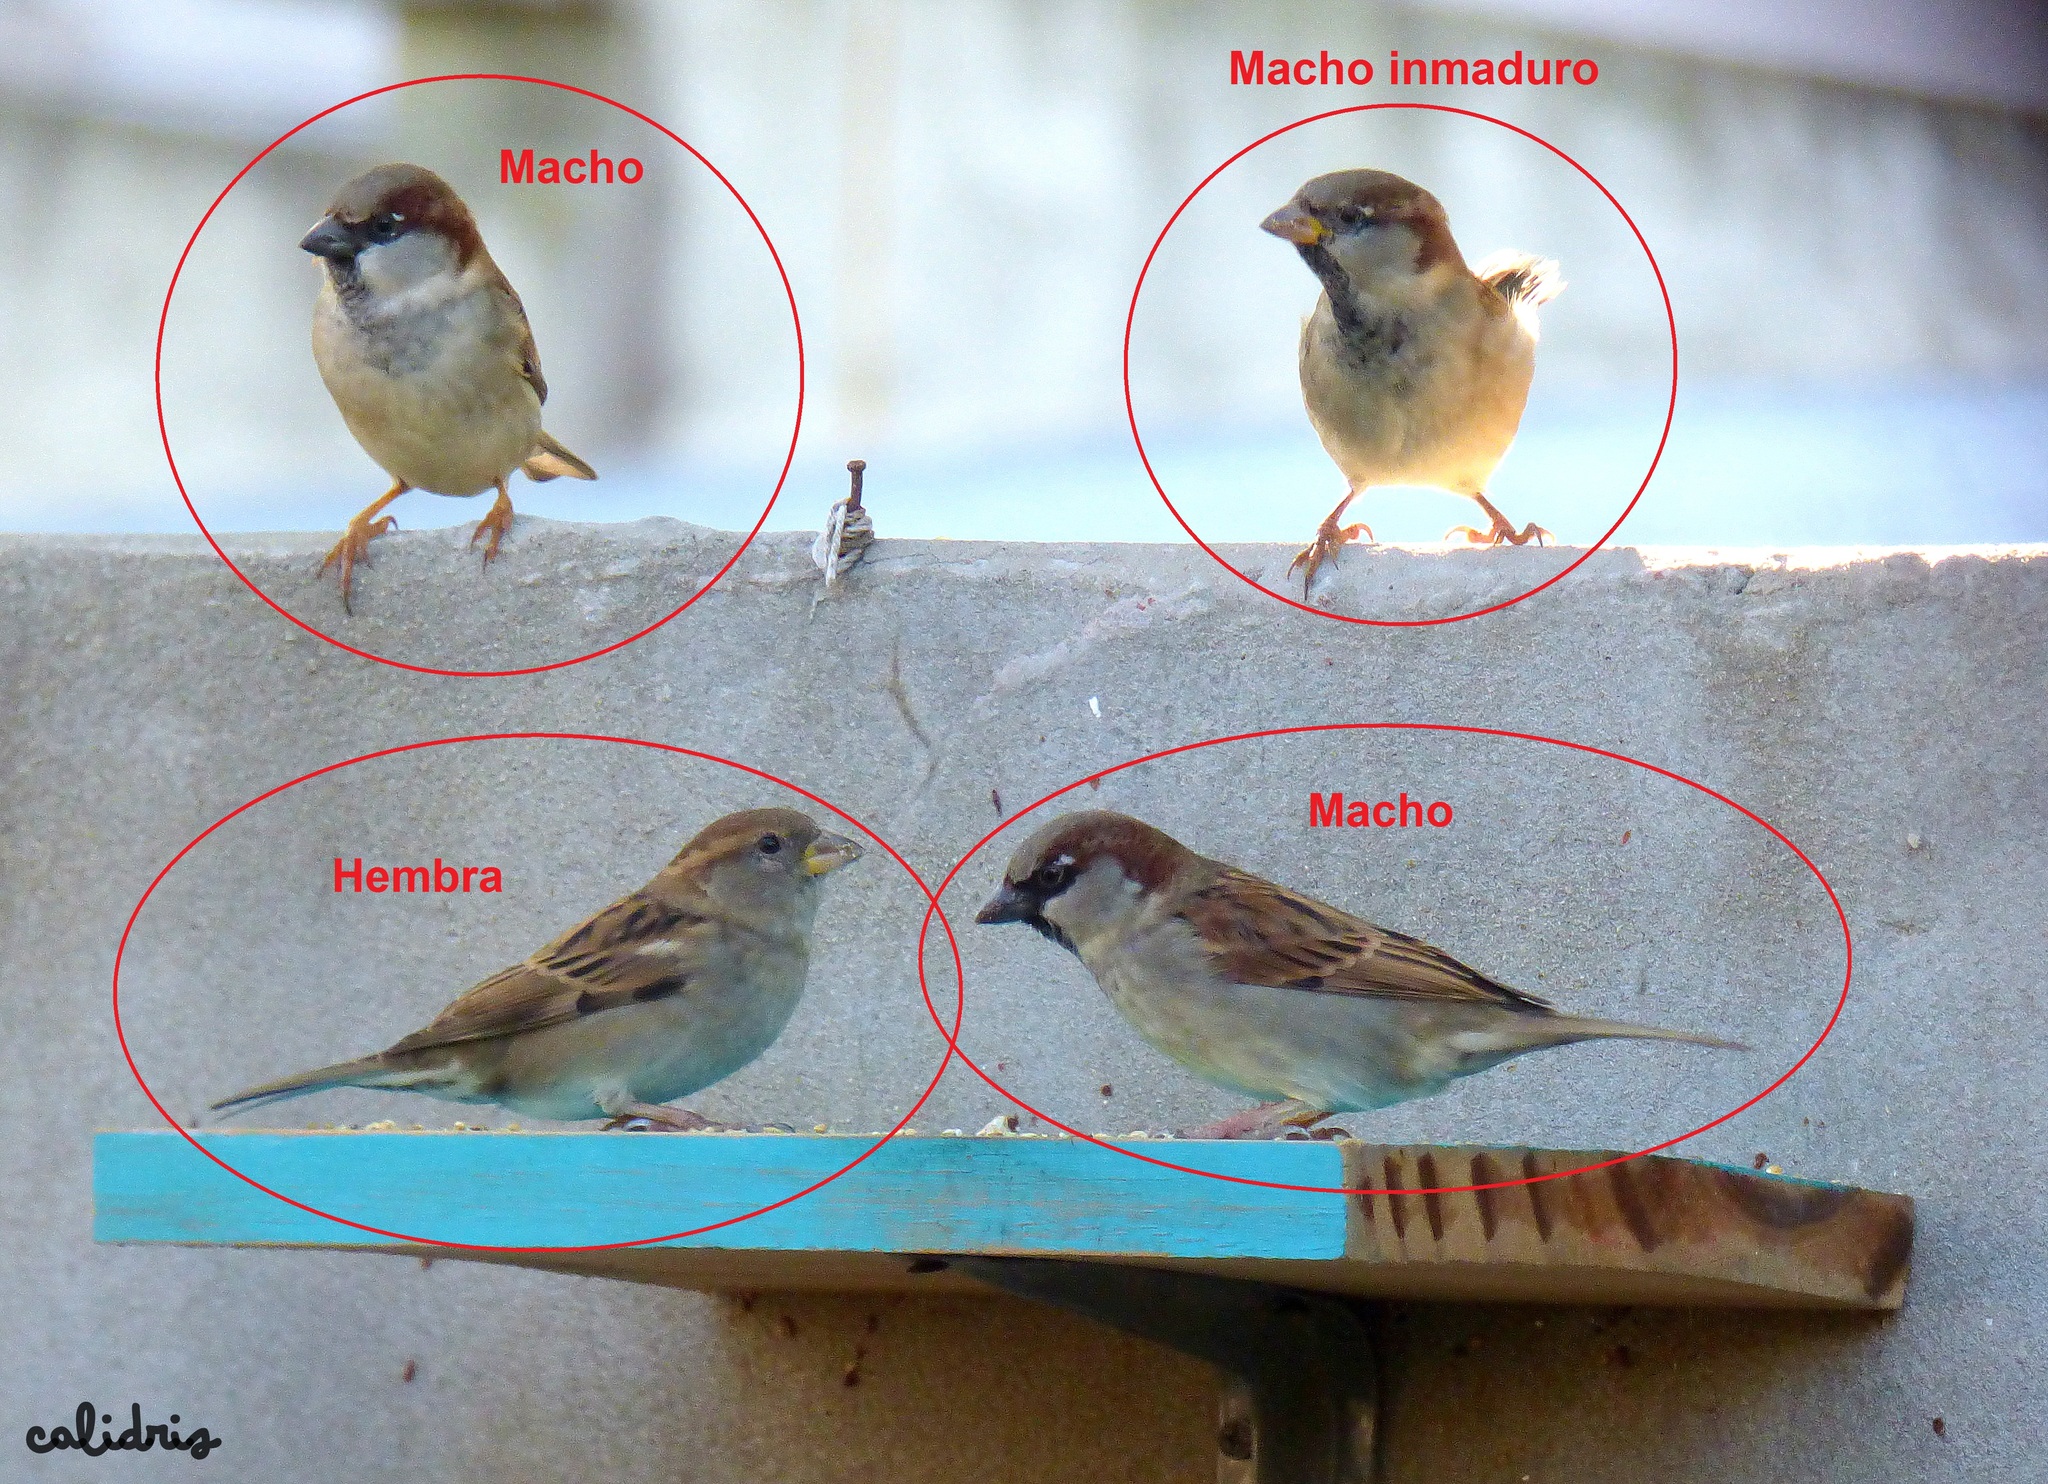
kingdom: Animalia
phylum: Chordata
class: Aves
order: Passeriformes
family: Passeridae
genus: Passer
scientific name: Passer domesticus
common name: House sparrow
